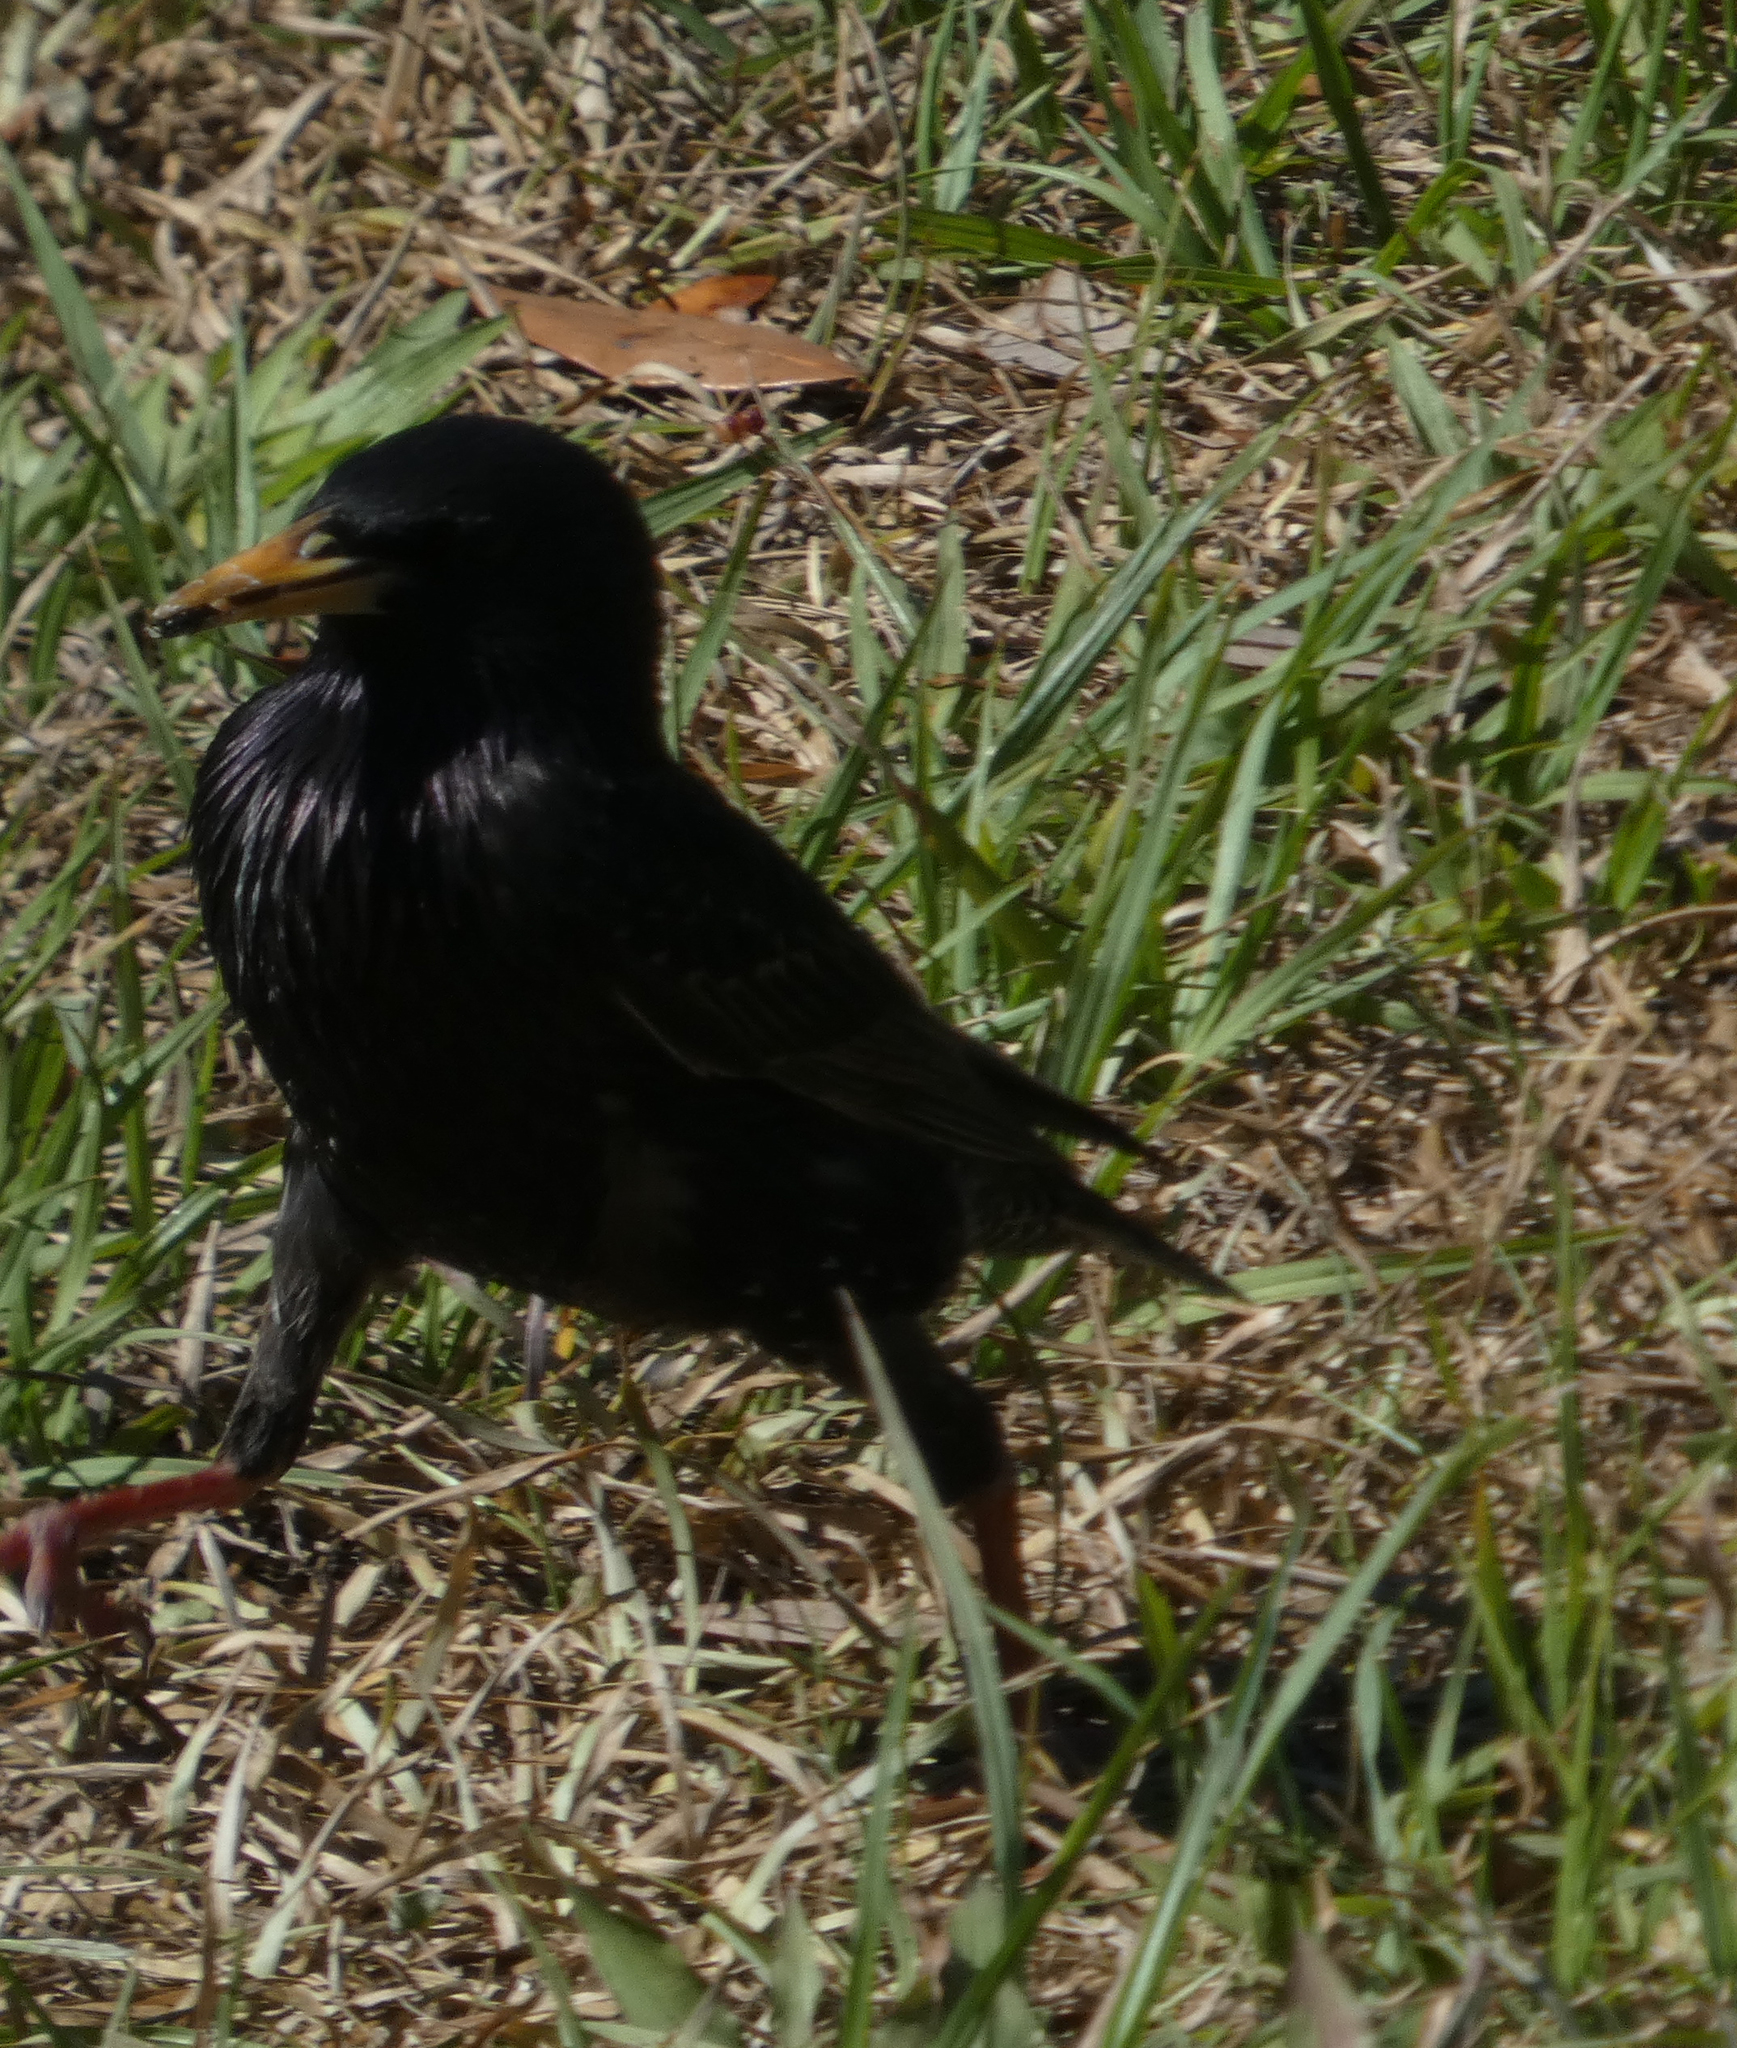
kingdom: Animalia
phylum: Chordata
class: Aves
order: Passeriformes
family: Sturnidae
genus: Sturnus
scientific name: Sturnus vulgaris
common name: Common starling
